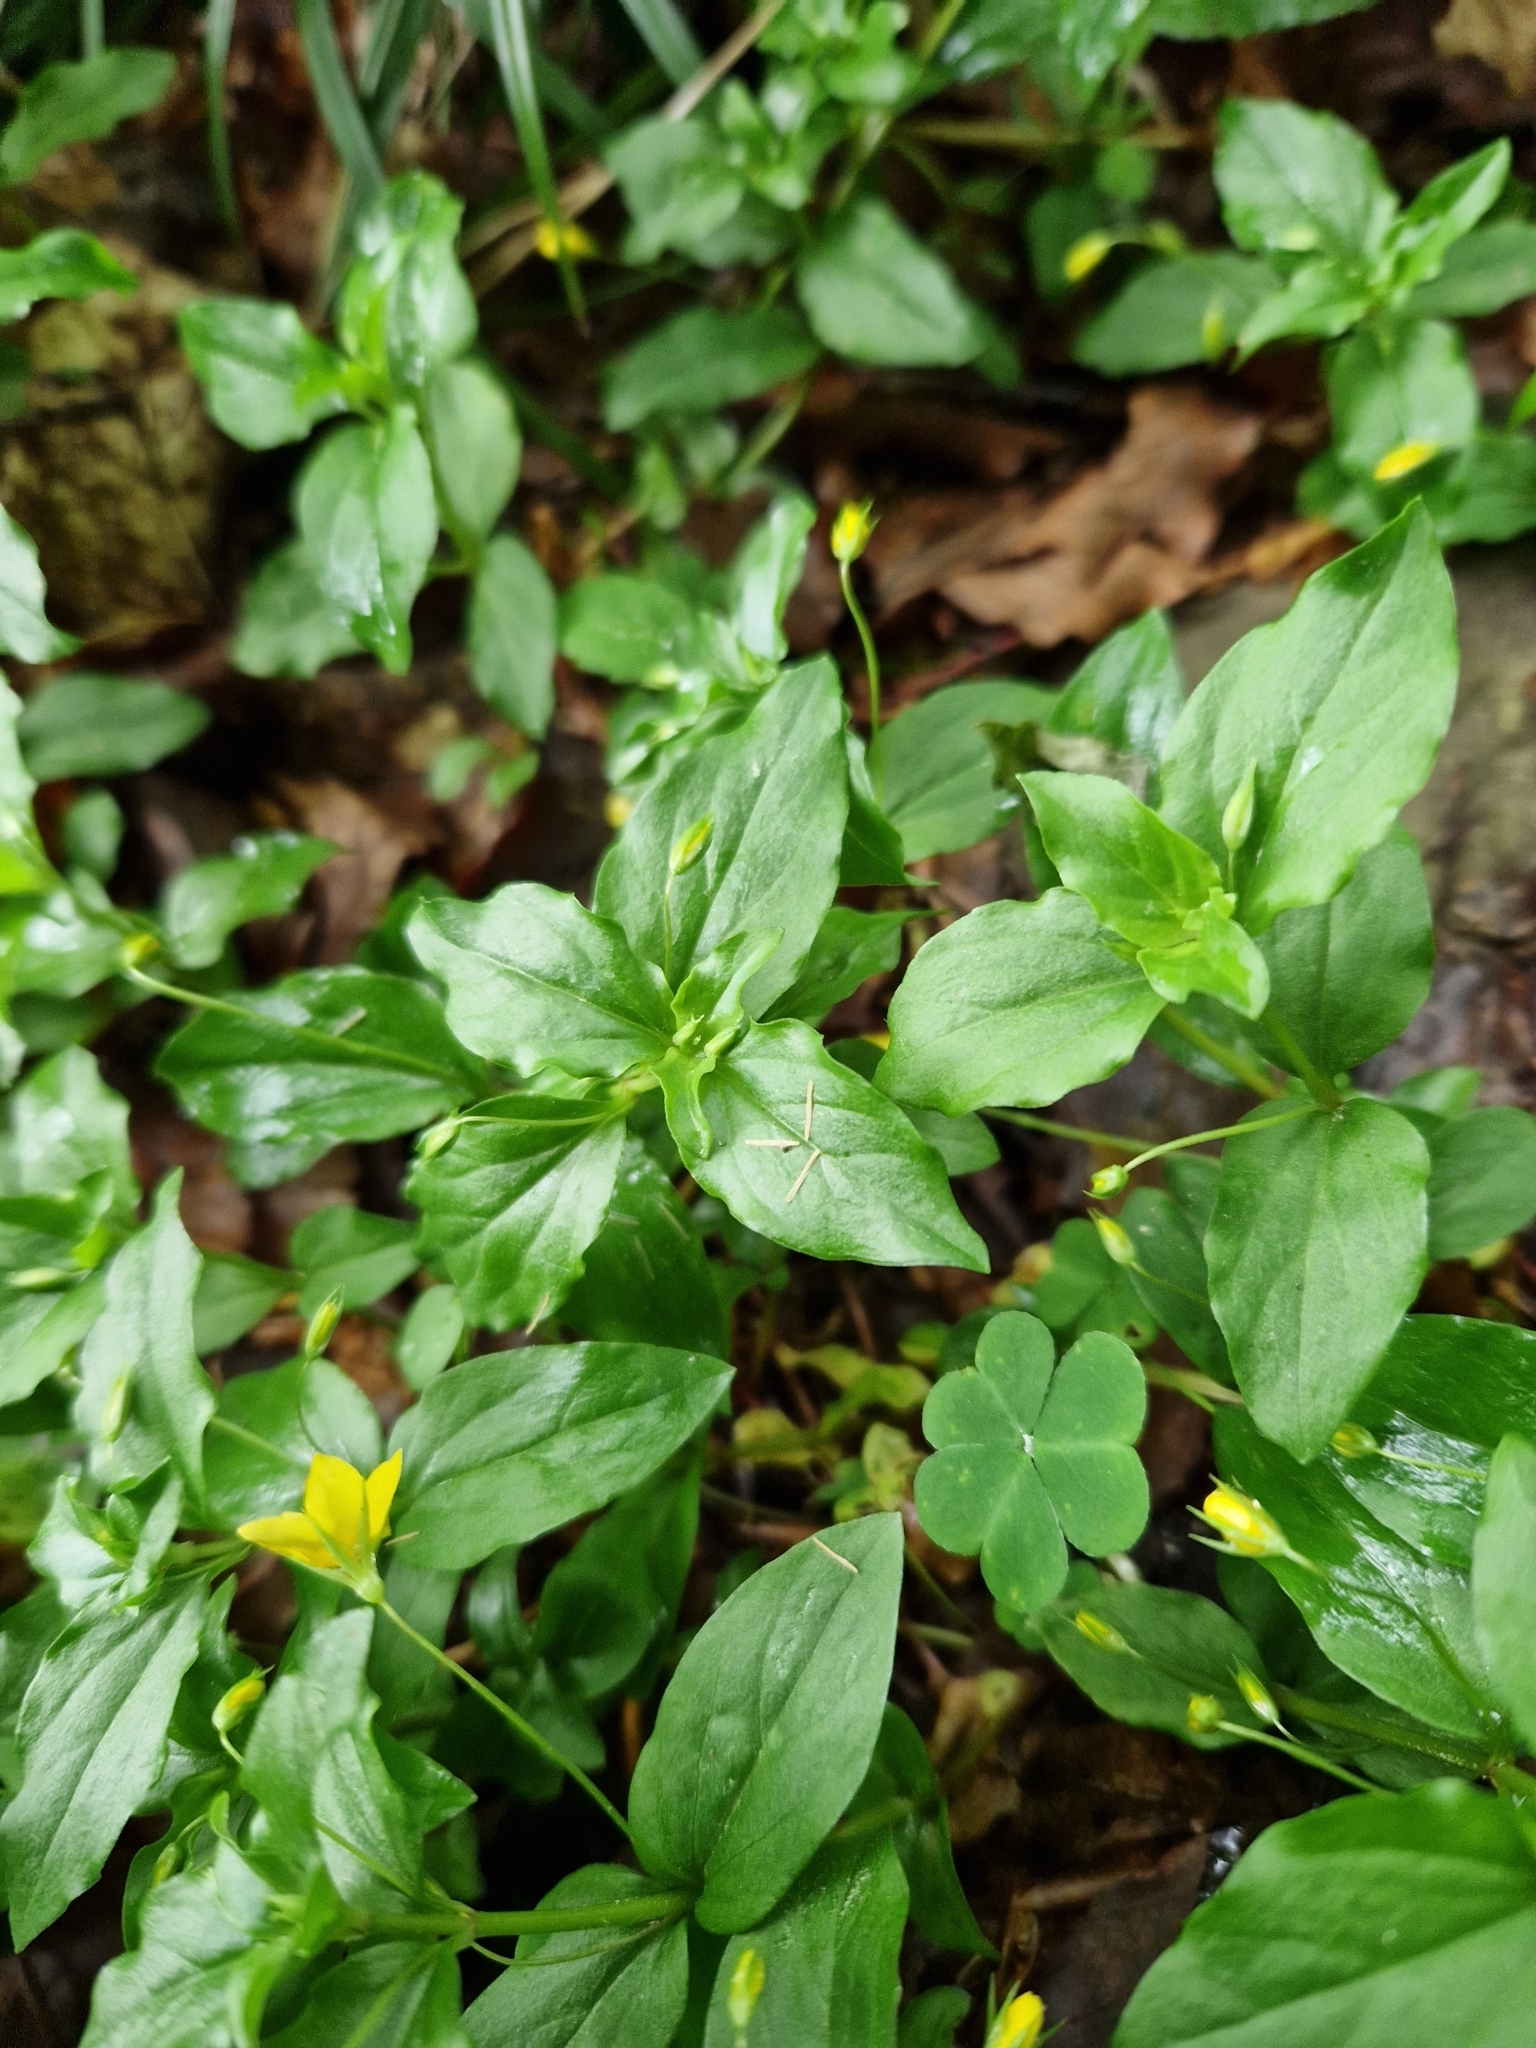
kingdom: Plantae
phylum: Tracheophyta
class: Magnoliopsida
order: Ericales
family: Primulaceae
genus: Lysimachia
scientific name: Lysimachia nemorum
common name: Yellow pimpernel
